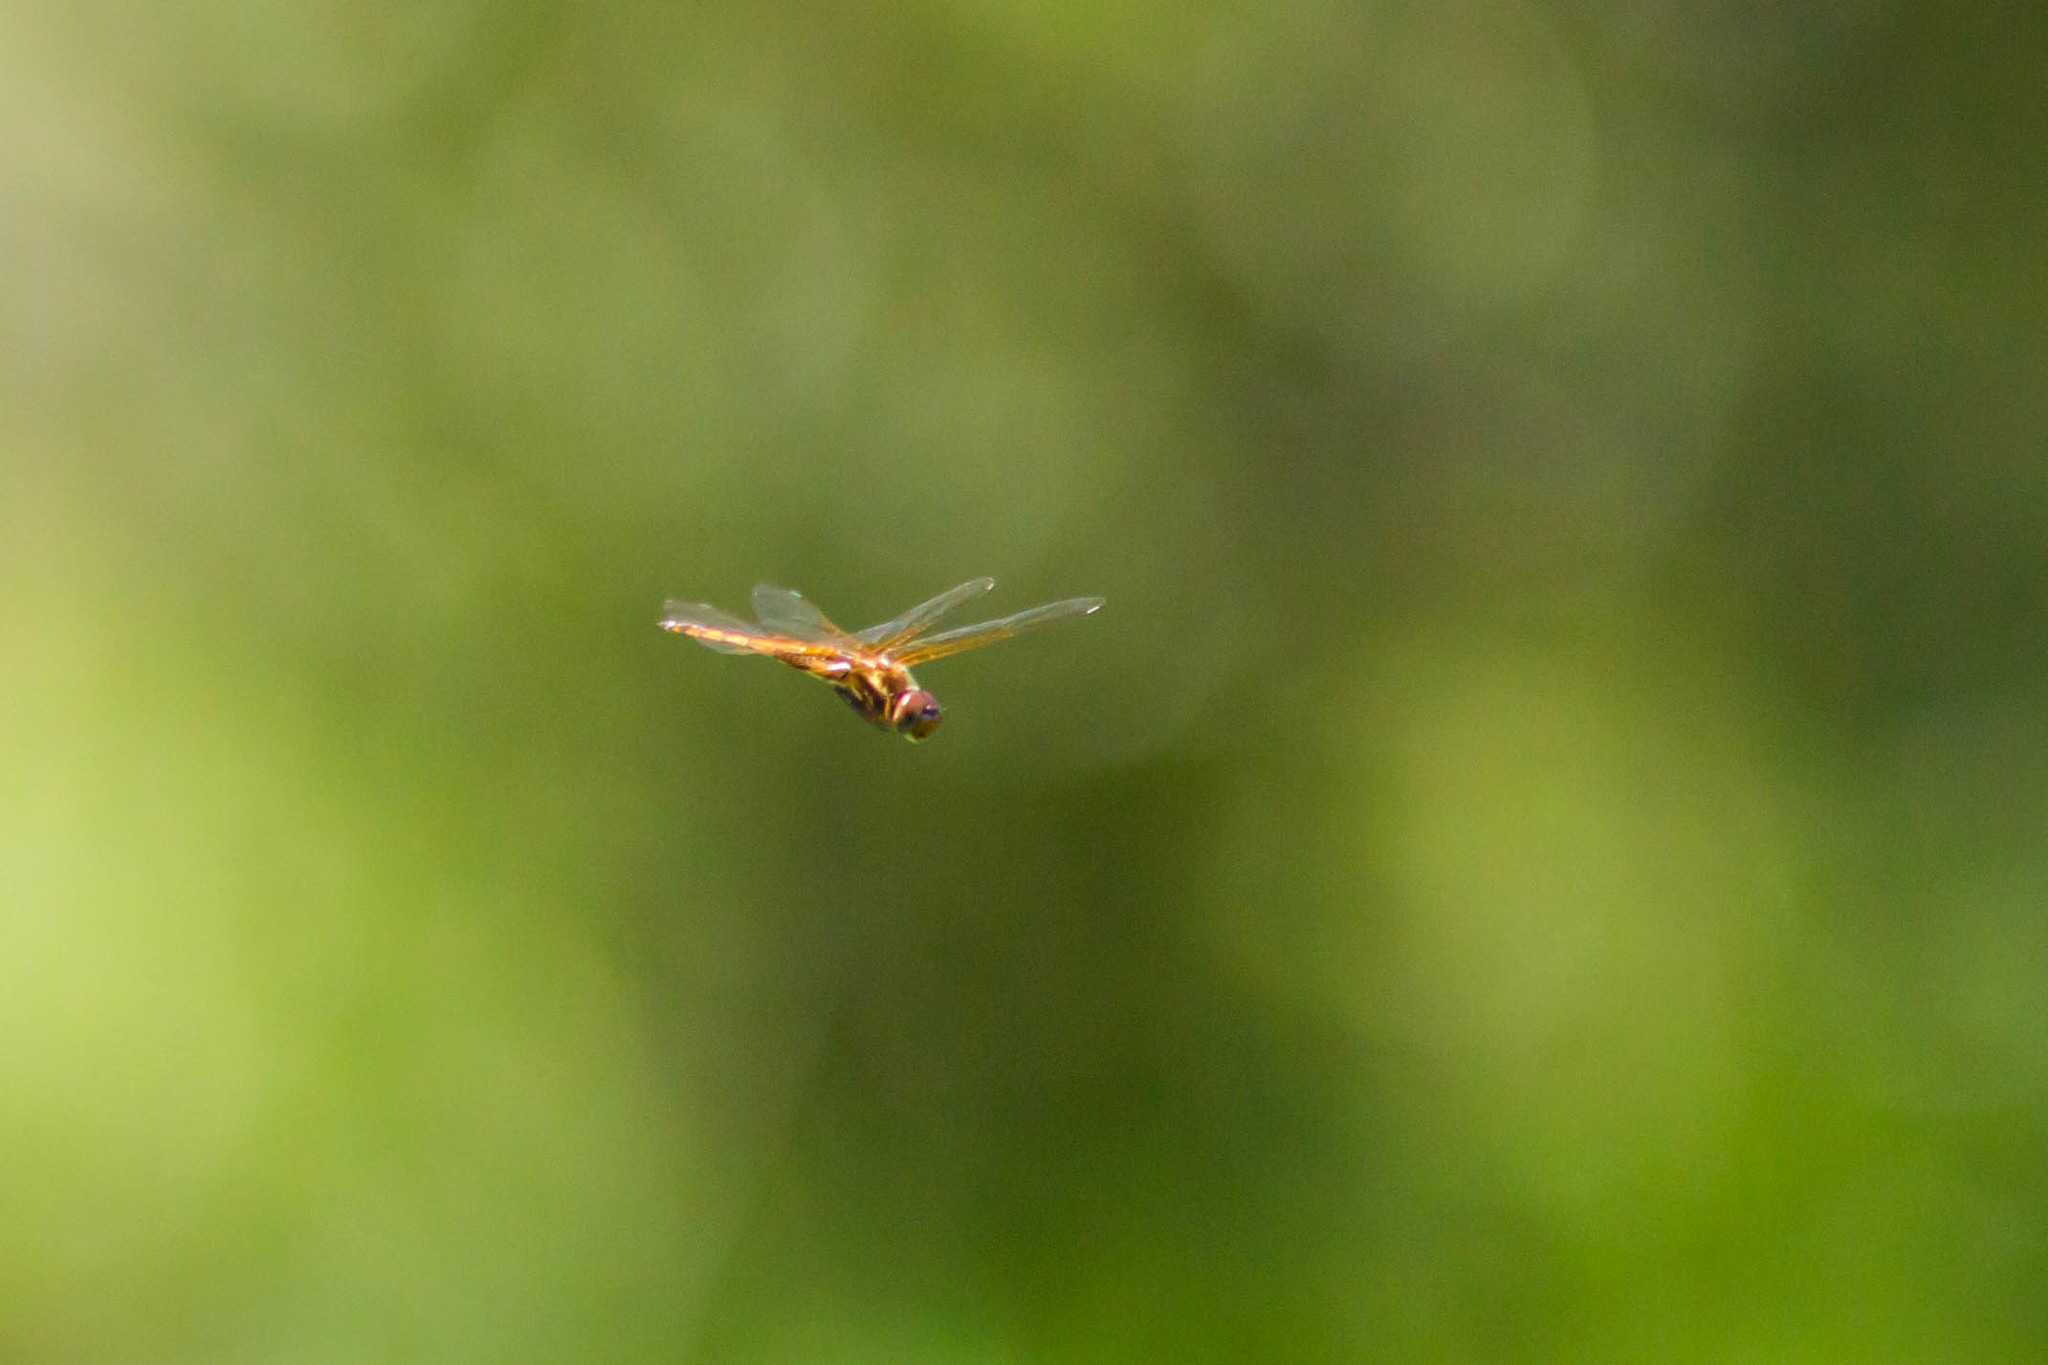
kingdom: Animalia
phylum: Arthropoda
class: Insecta
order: Odonata
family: Libellulidae
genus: Miathyria
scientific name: Miathyria marcella
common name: Hyacinth glider
